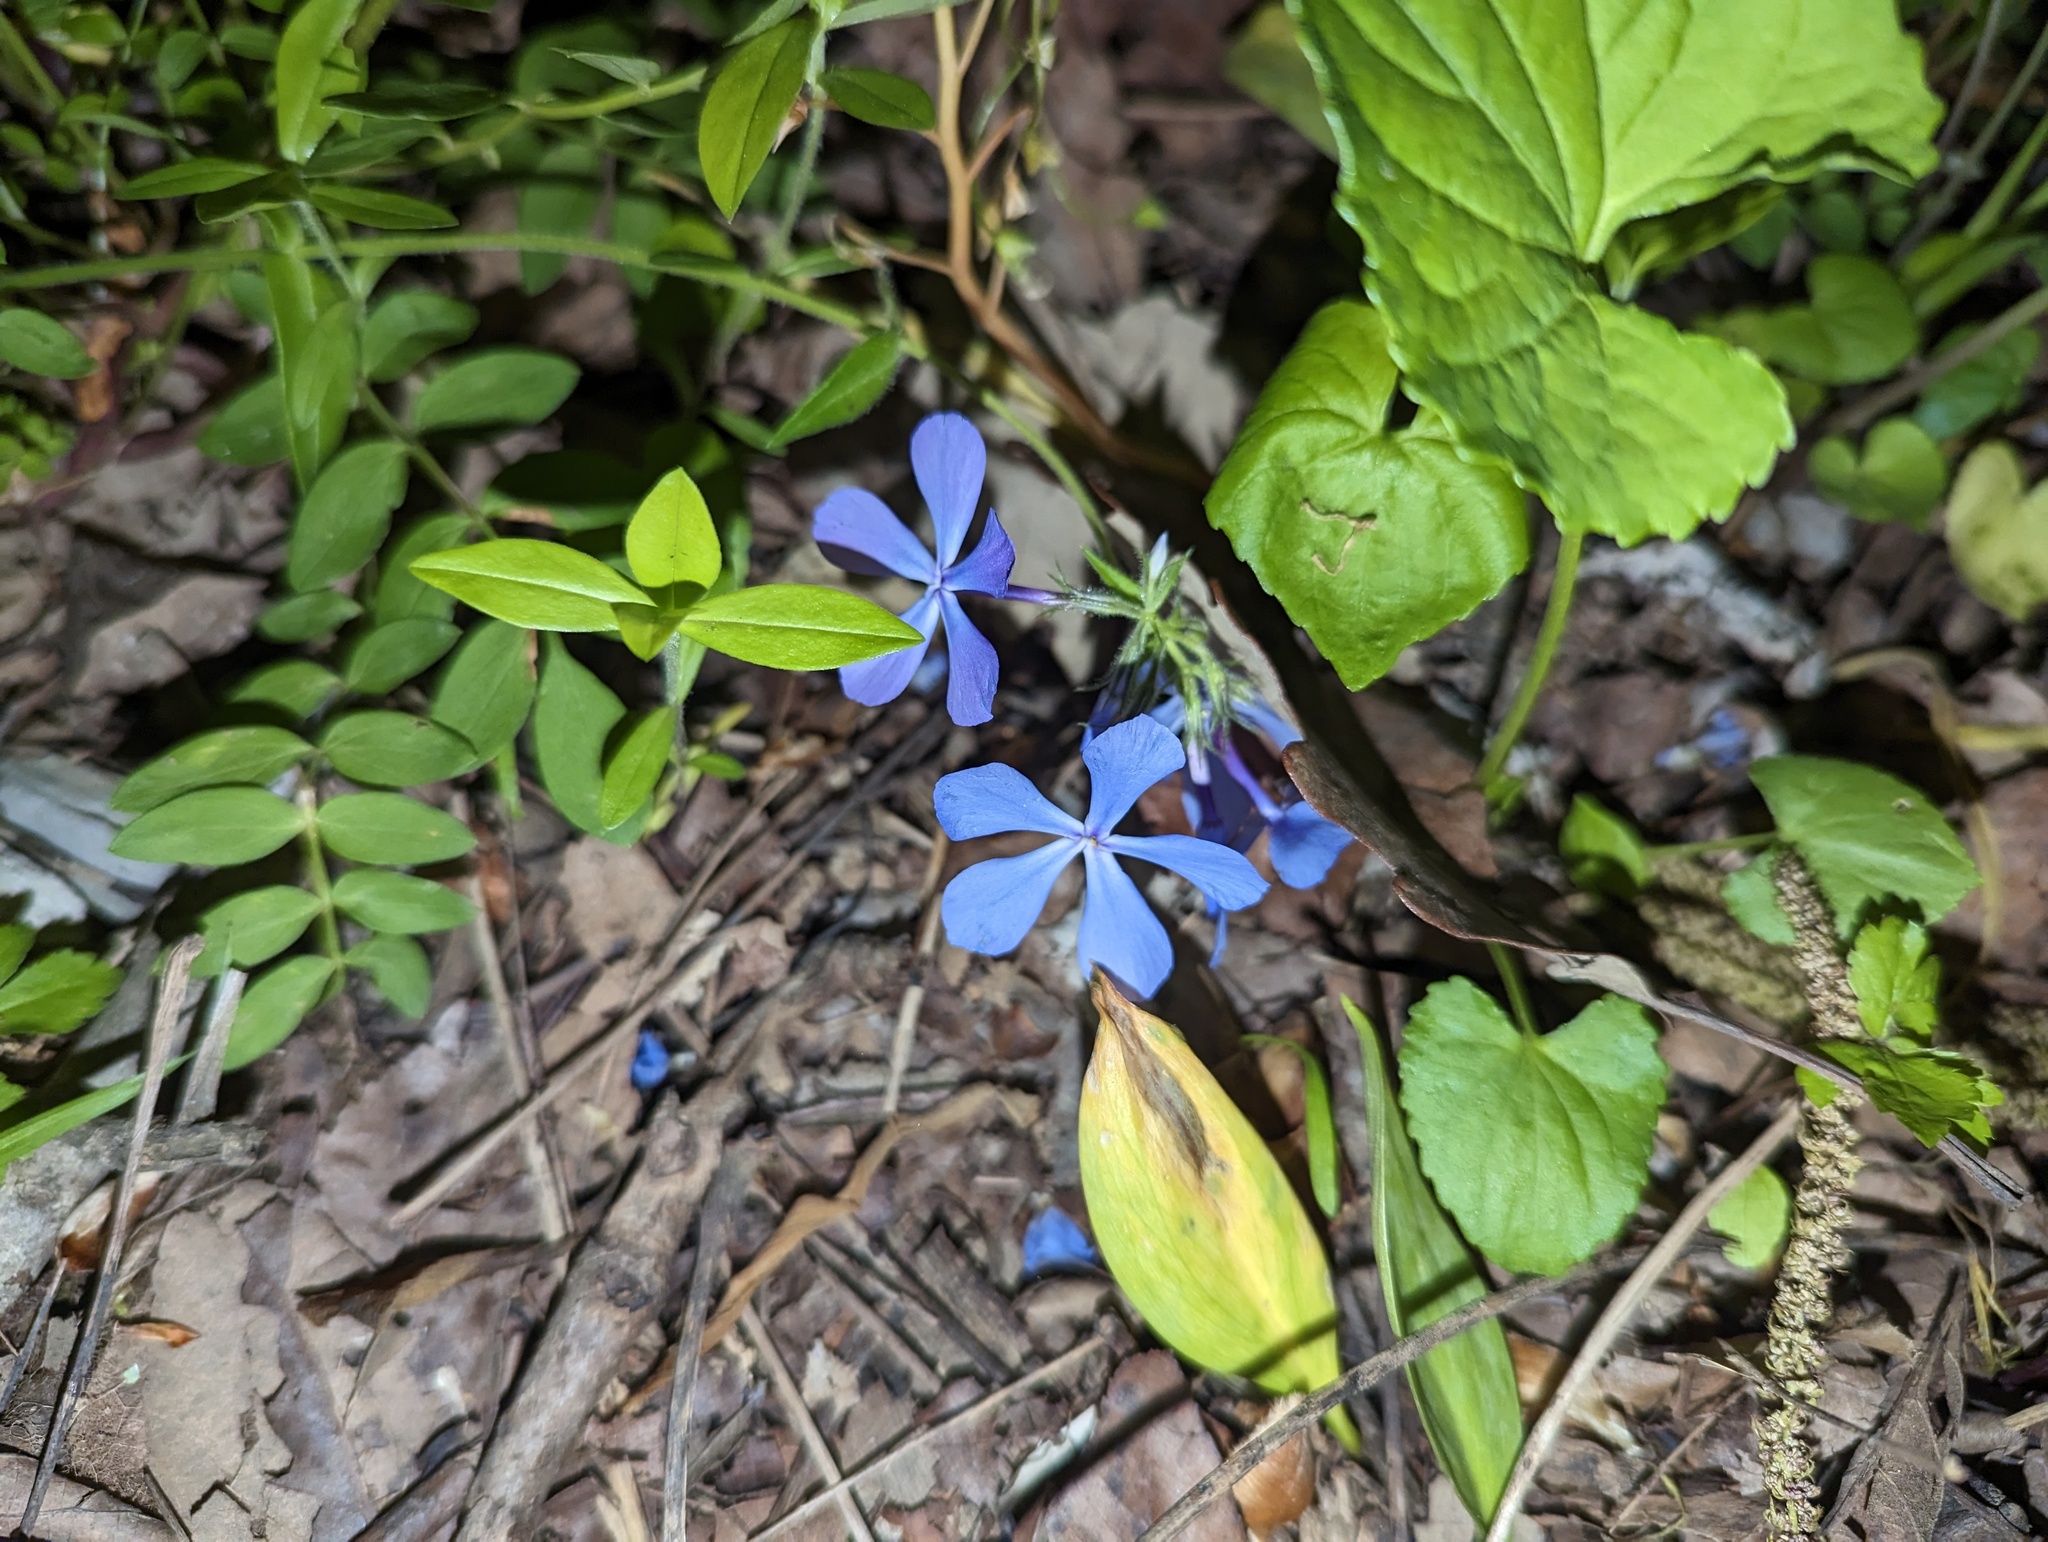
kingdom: Plantae
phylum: Tracheophyta
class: Magnoliopsida
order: Ericales
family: Polemoniaceae
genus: Phlox
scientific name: Phlox divaricata
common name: Blue phlox
